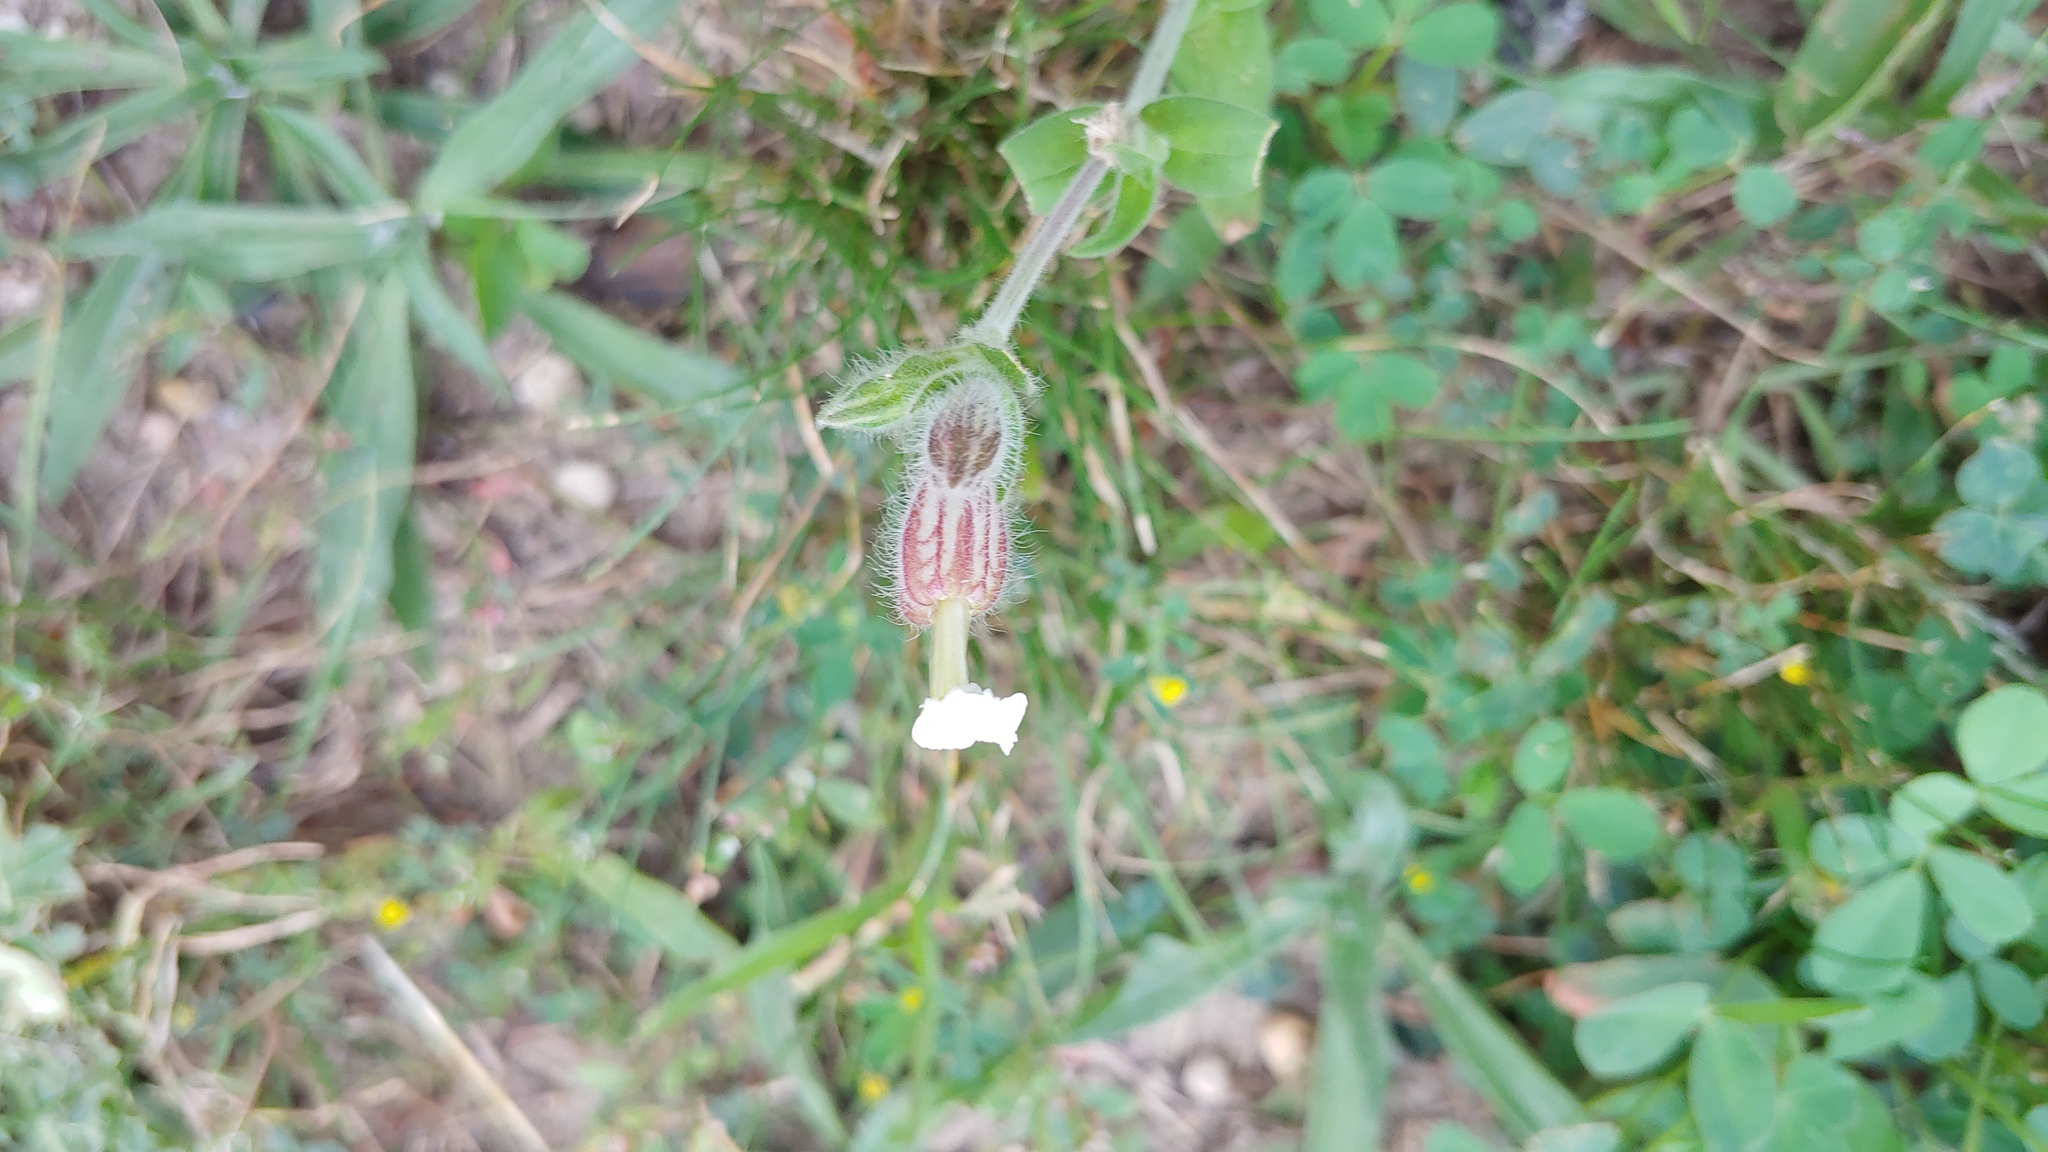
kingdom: Plantae
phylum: Tracheophyta
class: Magnoliopsida
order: Caryophyllales
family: Caryophyllaceae
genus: Silene
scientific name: Silene latifolia
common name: White campion
